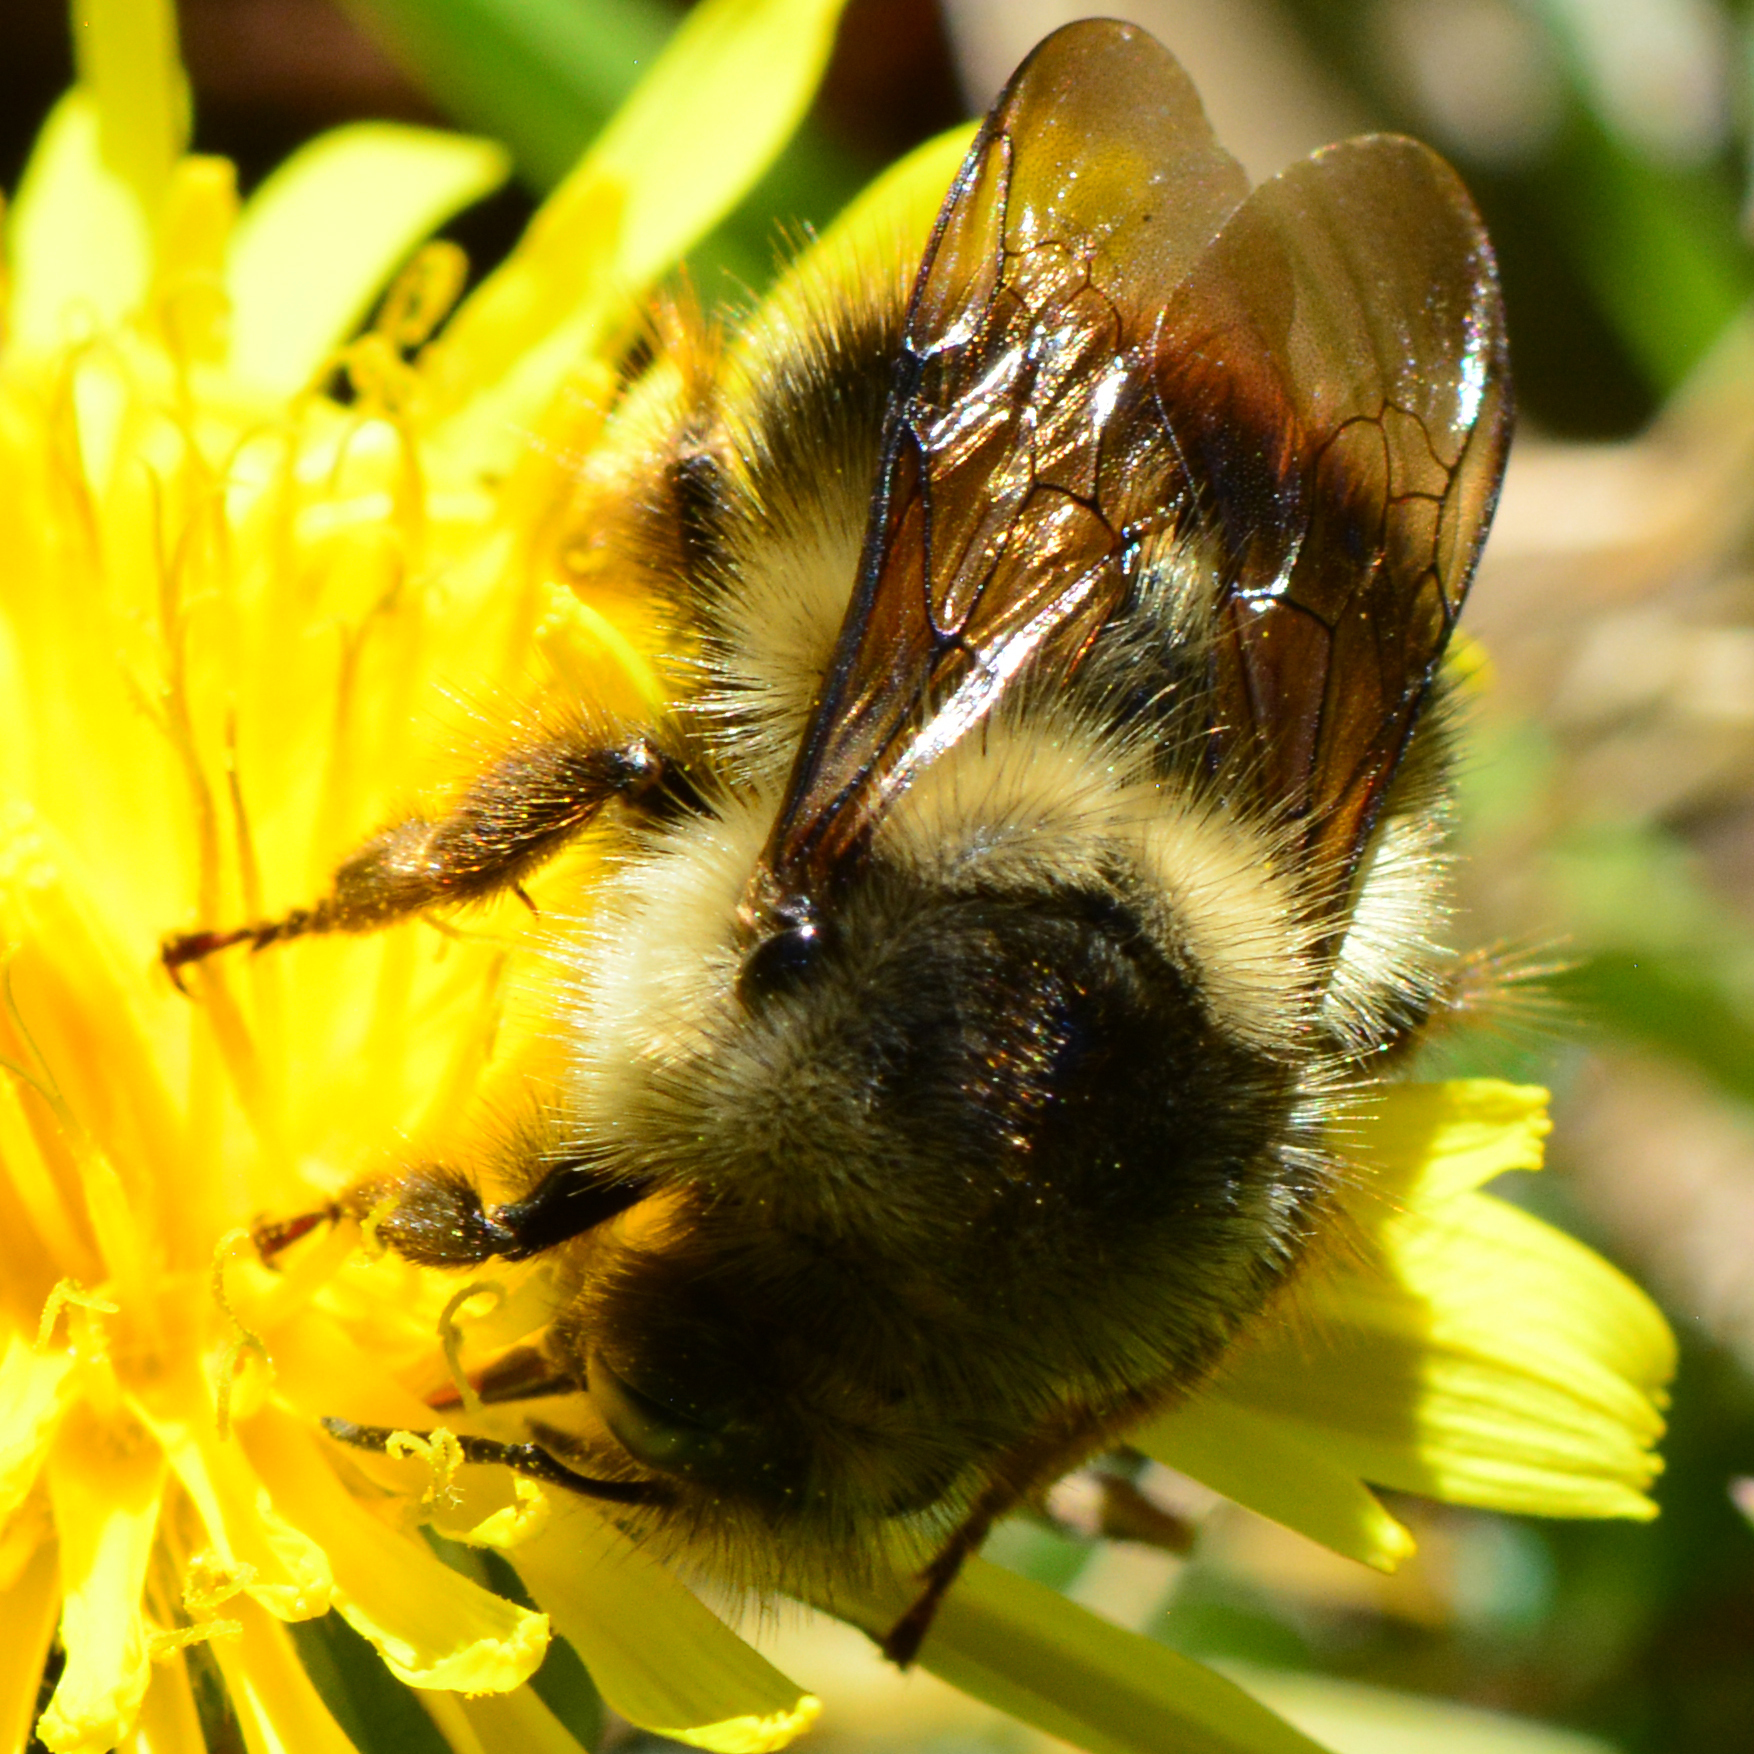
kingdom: Animalia
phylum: Arthropoda
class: Insecta
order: Hymenoptera
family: Apidae
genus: Bombus
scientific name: Bombus melanopygus
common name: Black tail bumble bee
